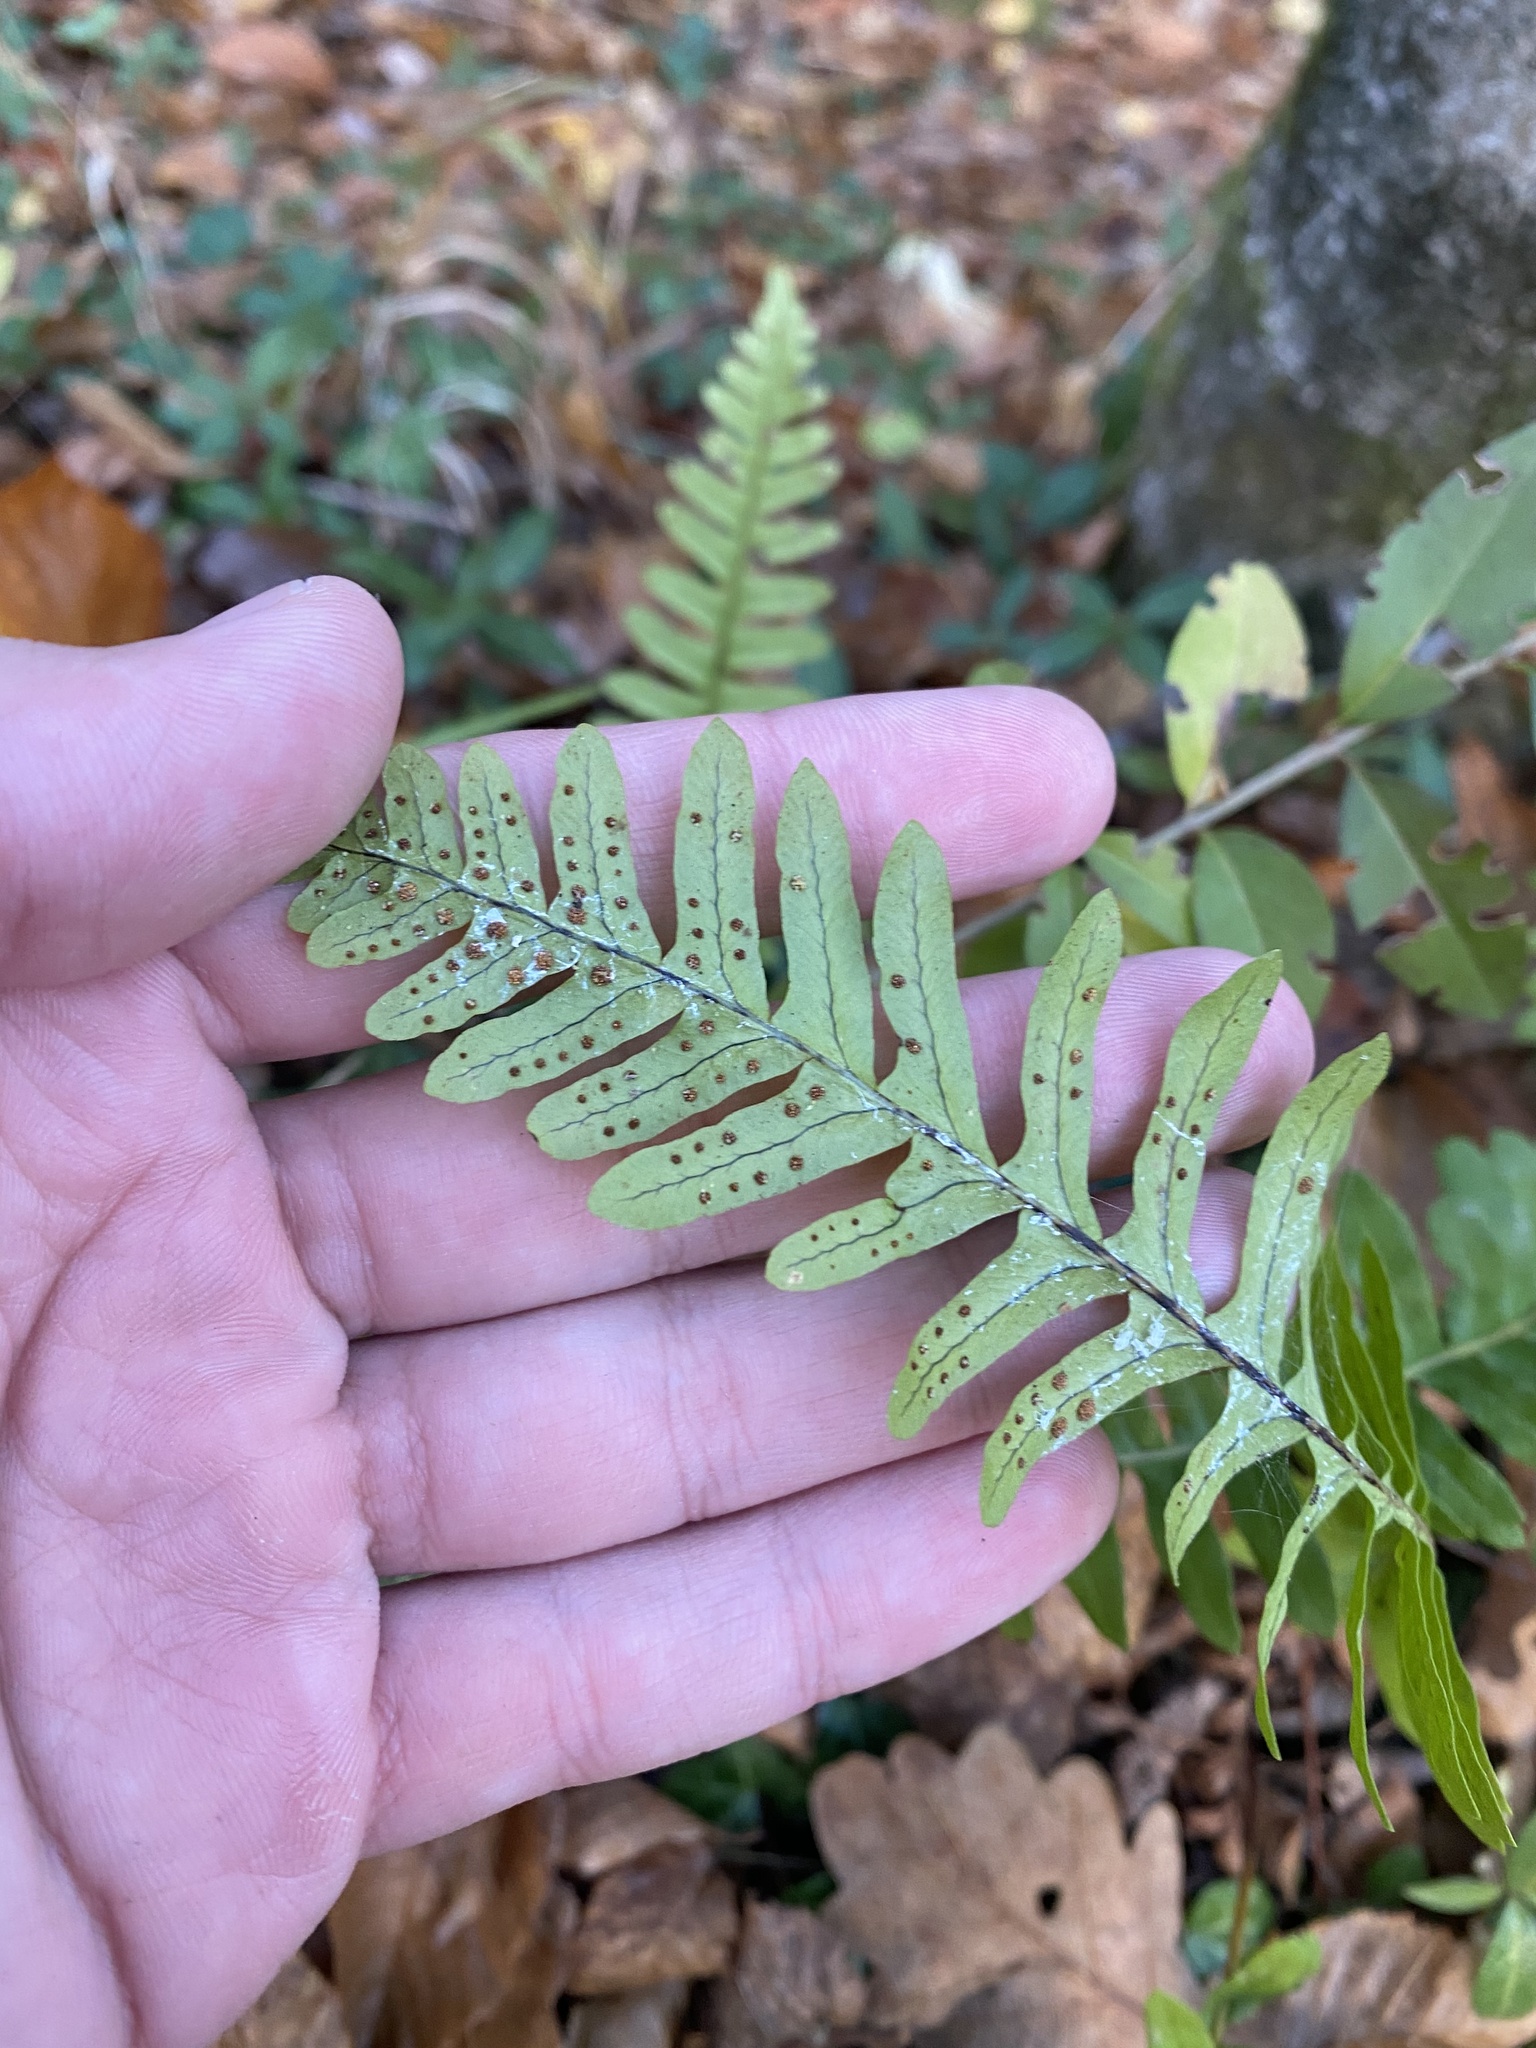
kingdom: Plantae
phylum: Tracheophyta
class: Polypodiopsida
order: Polypodiales
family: Polypodiaceae
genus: Polypodium
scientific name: Polypodium vulgare
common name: Common polypody
